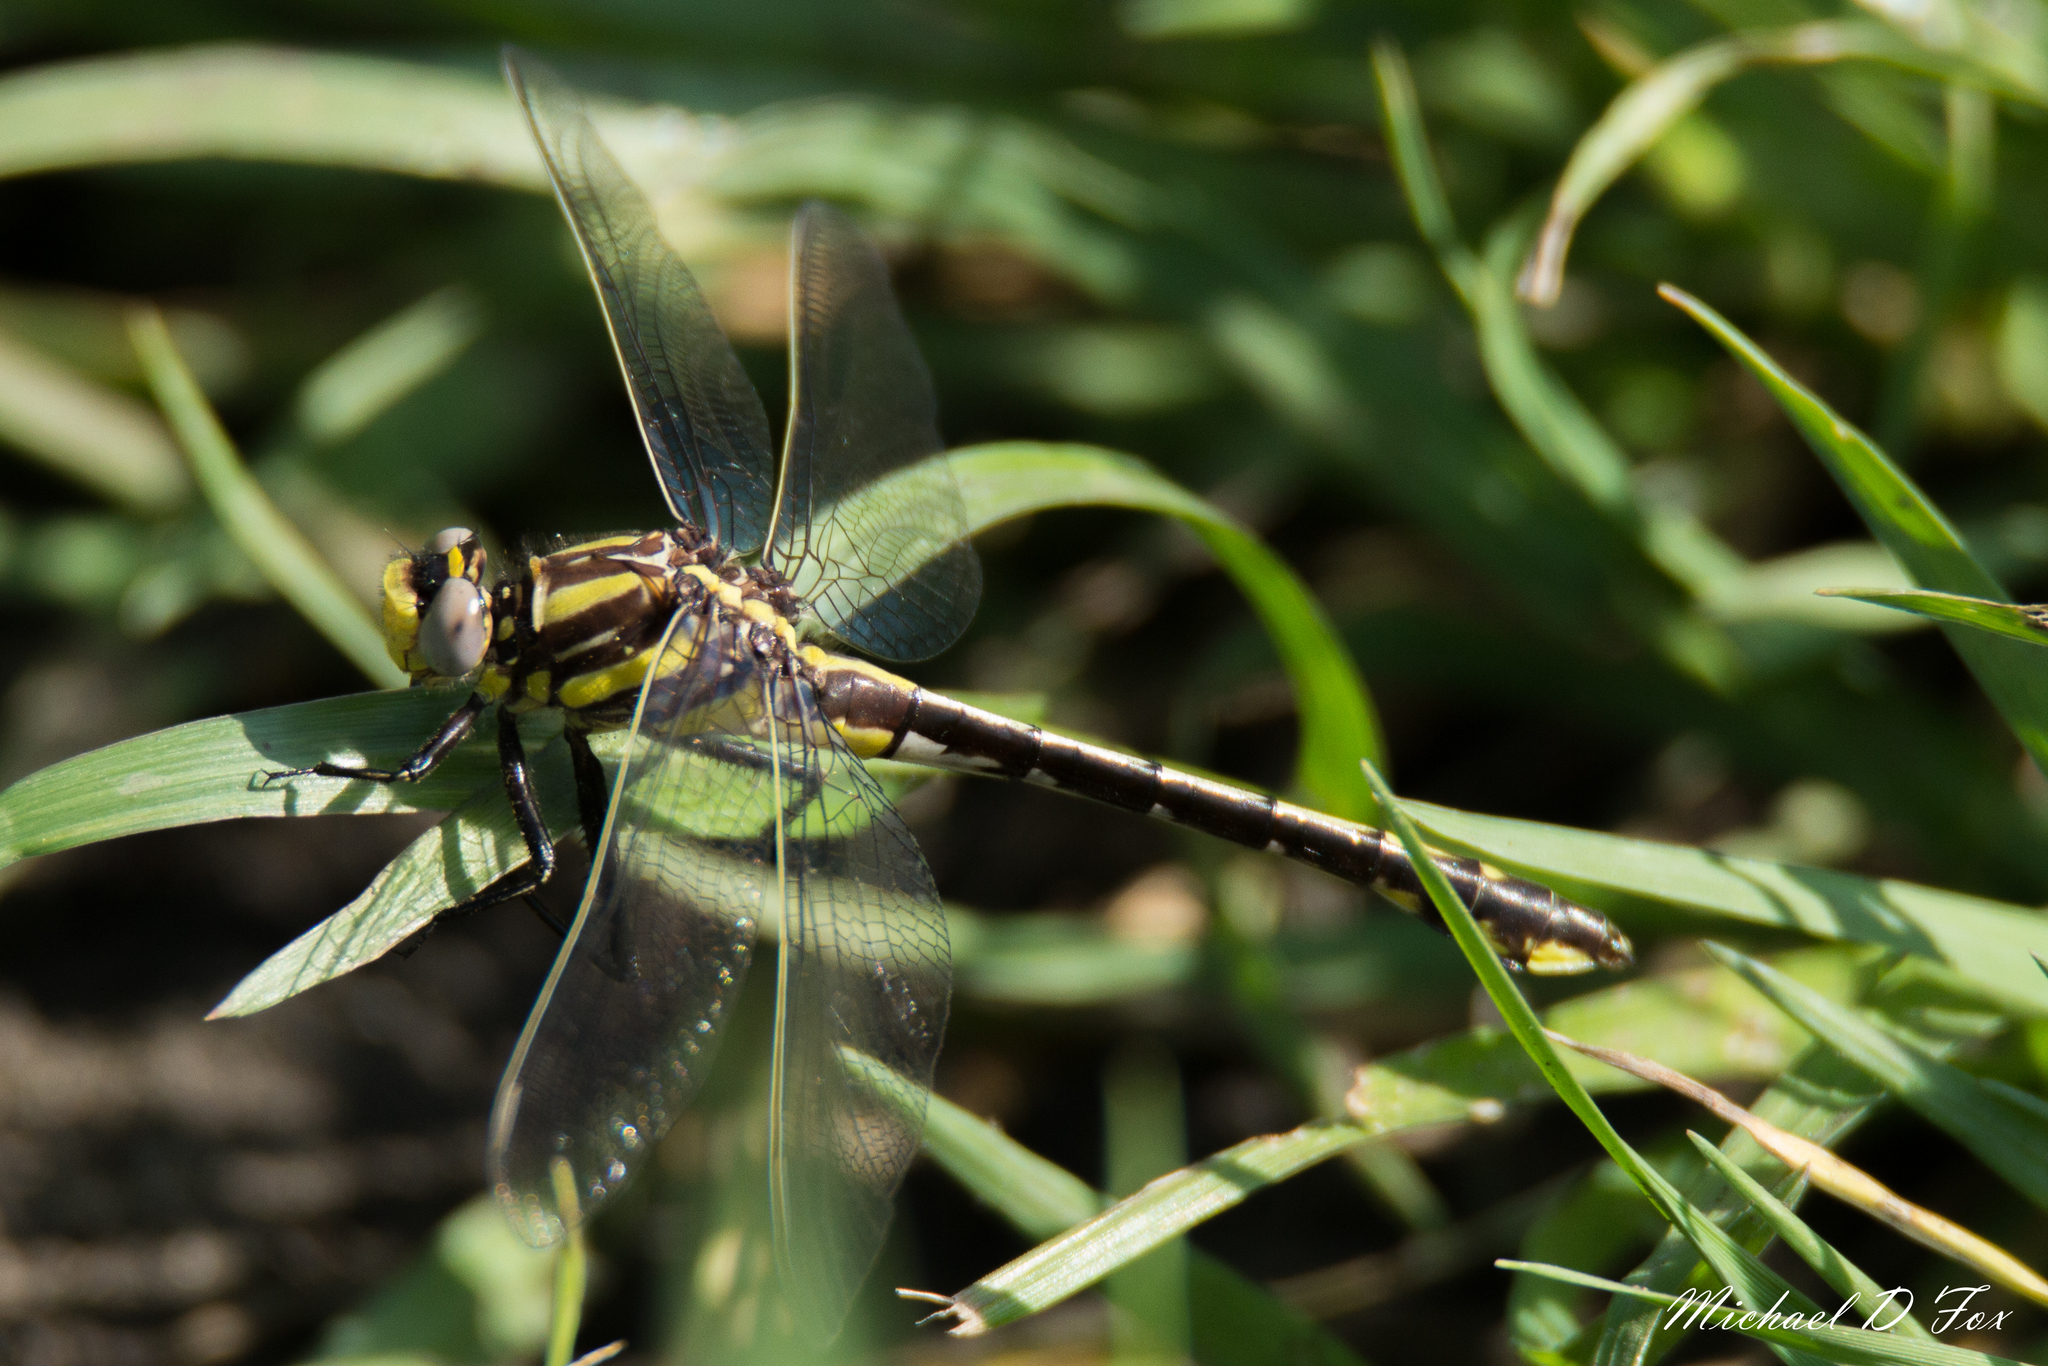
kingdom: Animalia
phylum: Arthropoda
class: Insecta
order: Odonata
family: Gomphidae
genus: Gomphurus
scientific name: Gomphurus externus
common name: Plains clubtail
